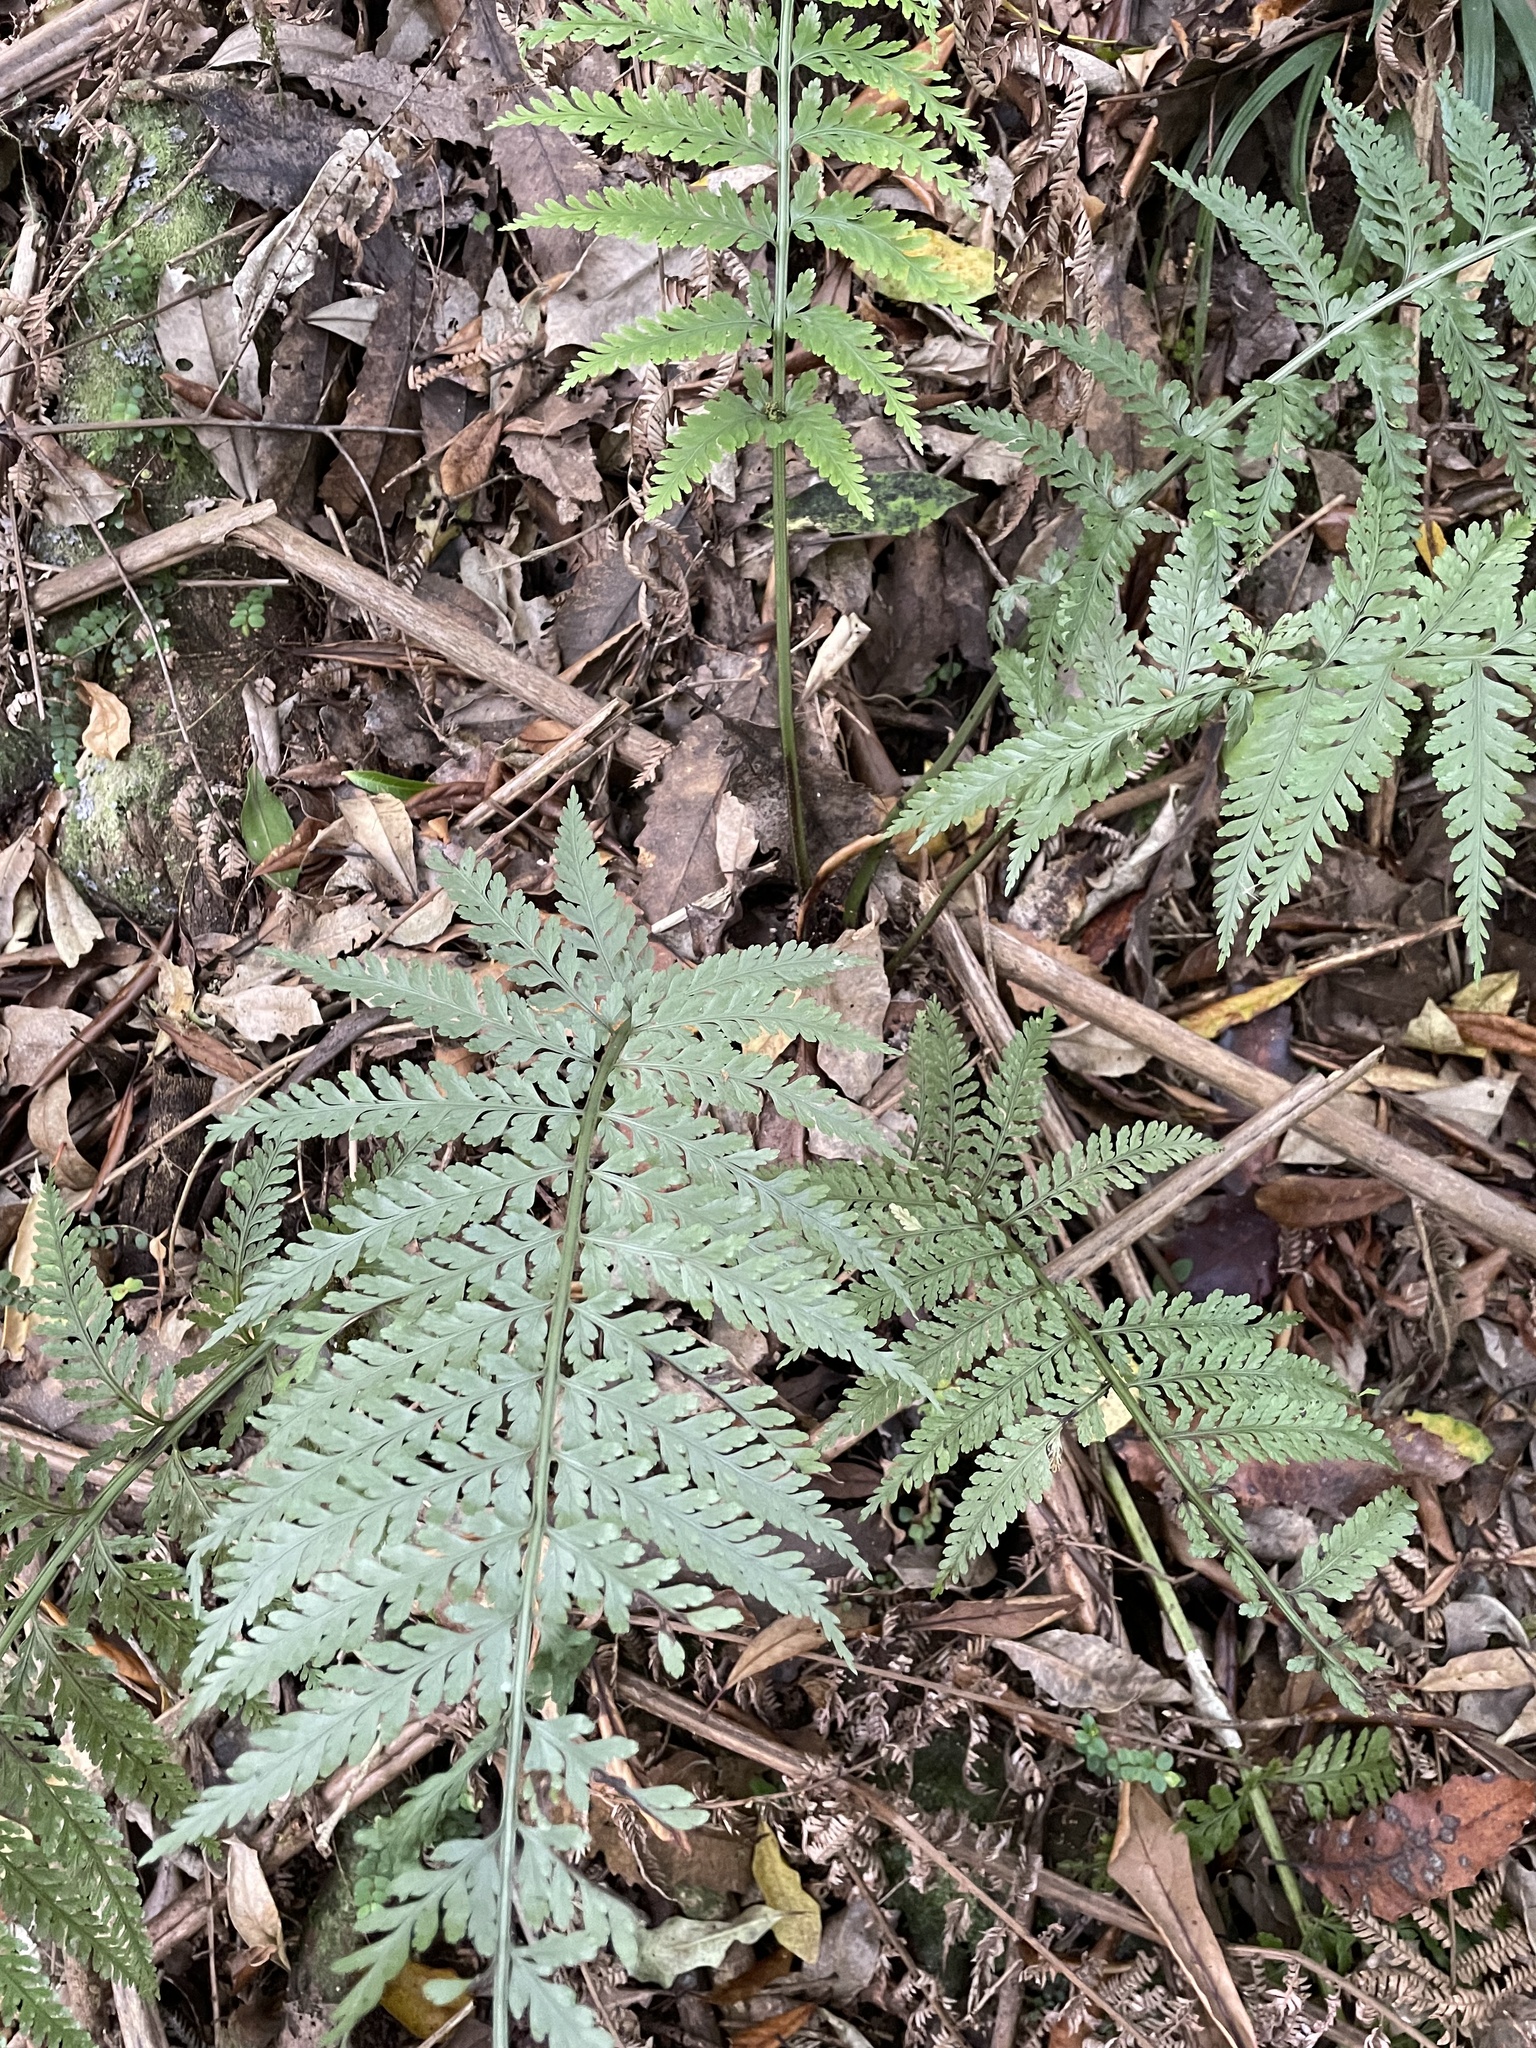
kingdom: Plantae
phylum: Tracheophyta
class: Polypodiopsida
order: Polypodiales
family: Aspleniaceae
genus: Asplenium
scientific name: Asplenium bulbiferum
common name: Mother fern
